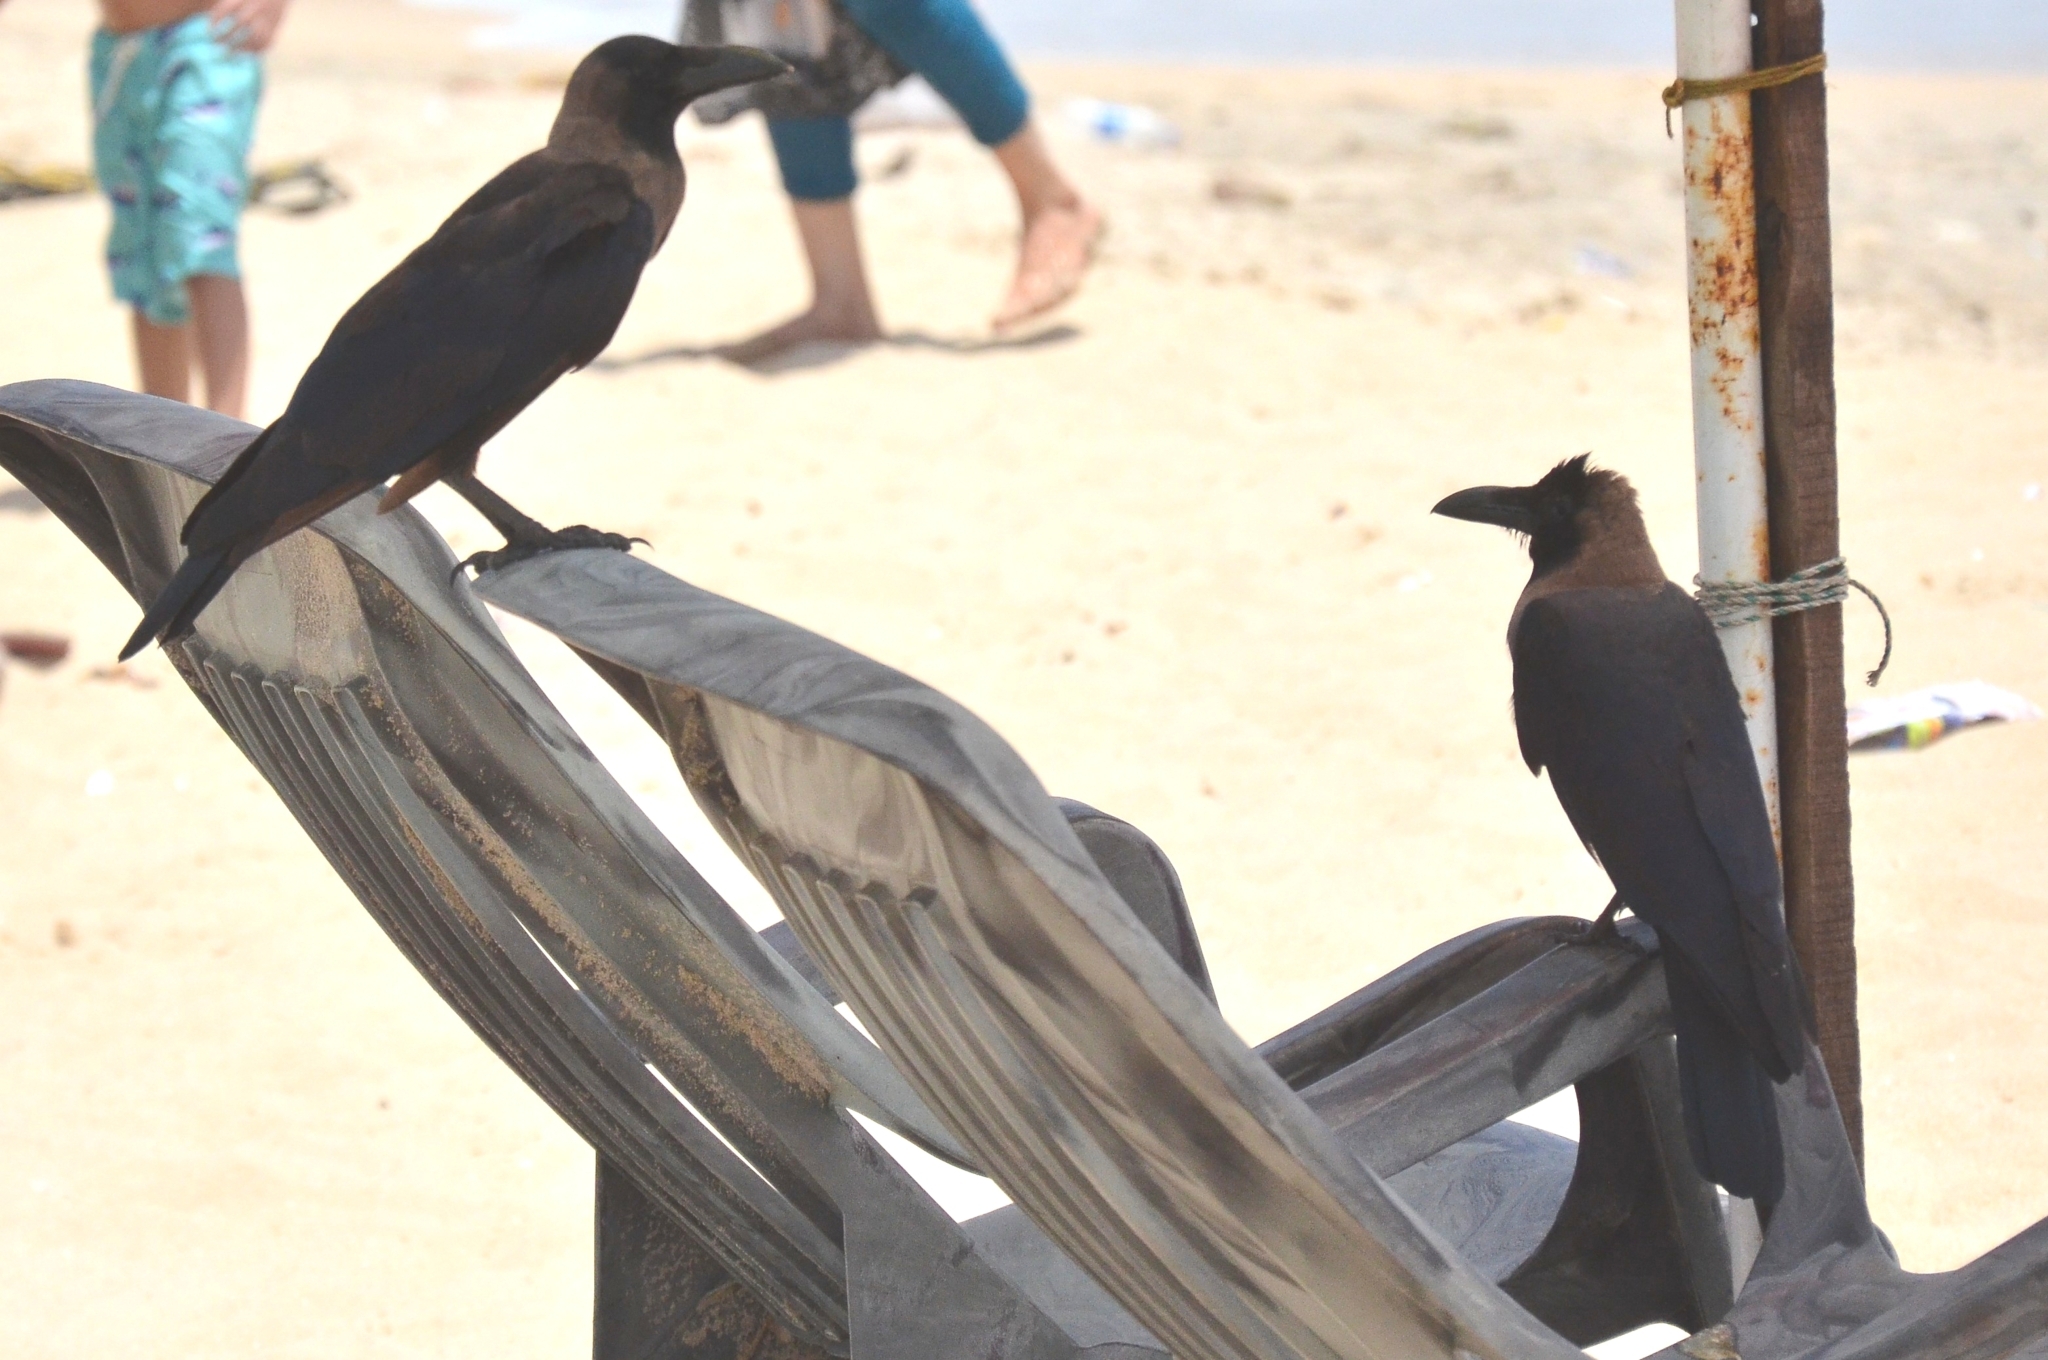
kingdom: Animalia
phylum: Chordata
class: Aves
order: Passeriformes
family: Corvidae
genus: Corvus
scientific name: Corvus splendens
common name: House crow
